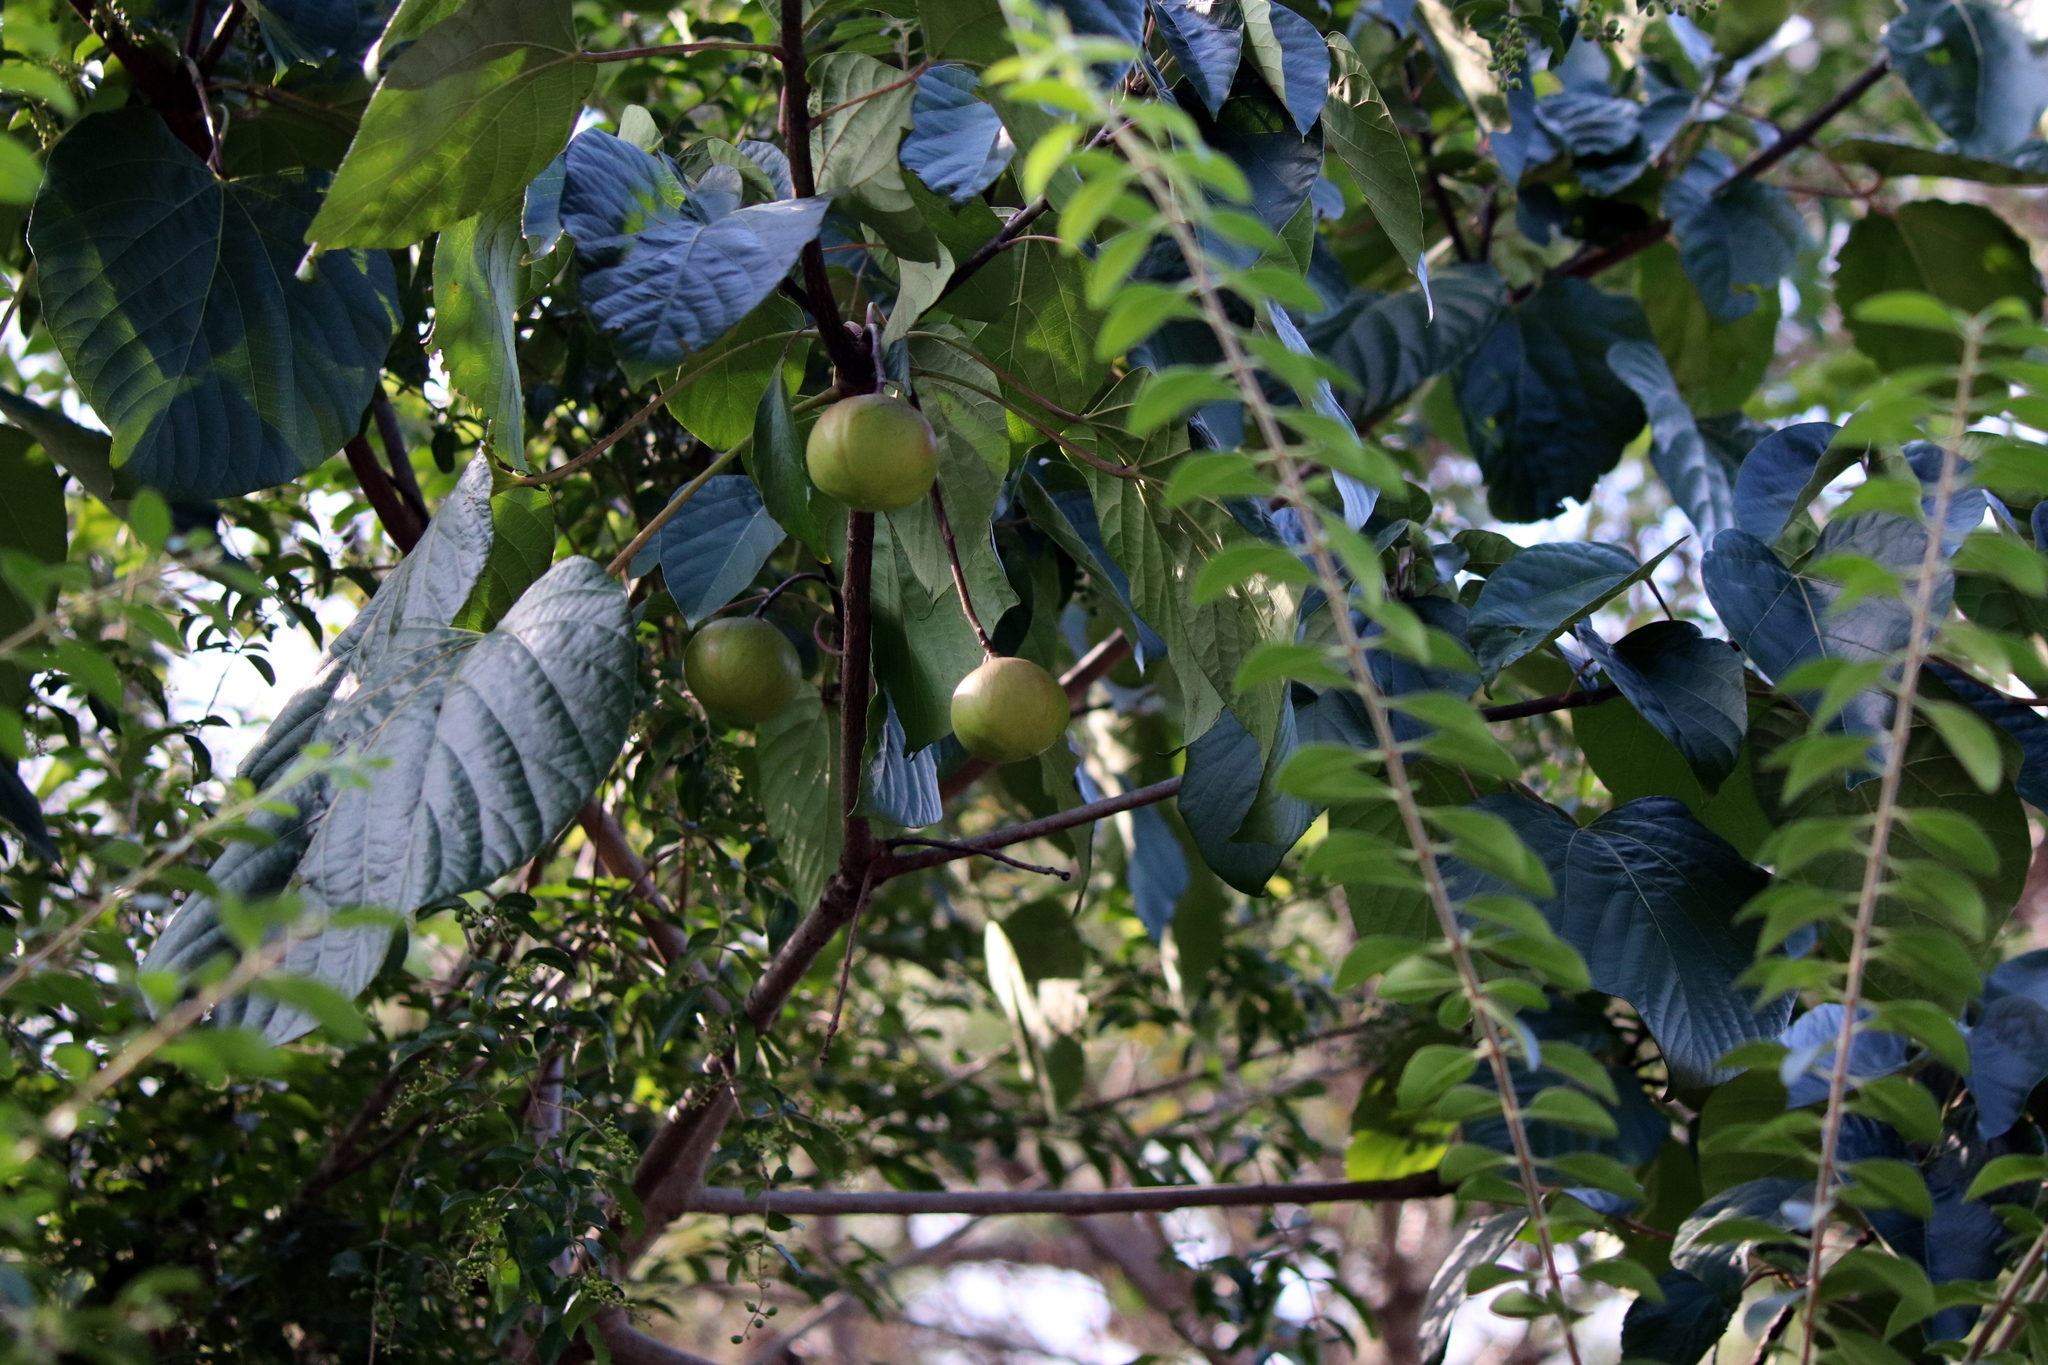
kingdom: Plantae
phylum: Tracheophyta
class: Magnoliopsida
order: Malpighiales
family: Euphorbiaceae
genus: Vernicia
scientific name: Vernicia fordii
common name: Tungoil tree
